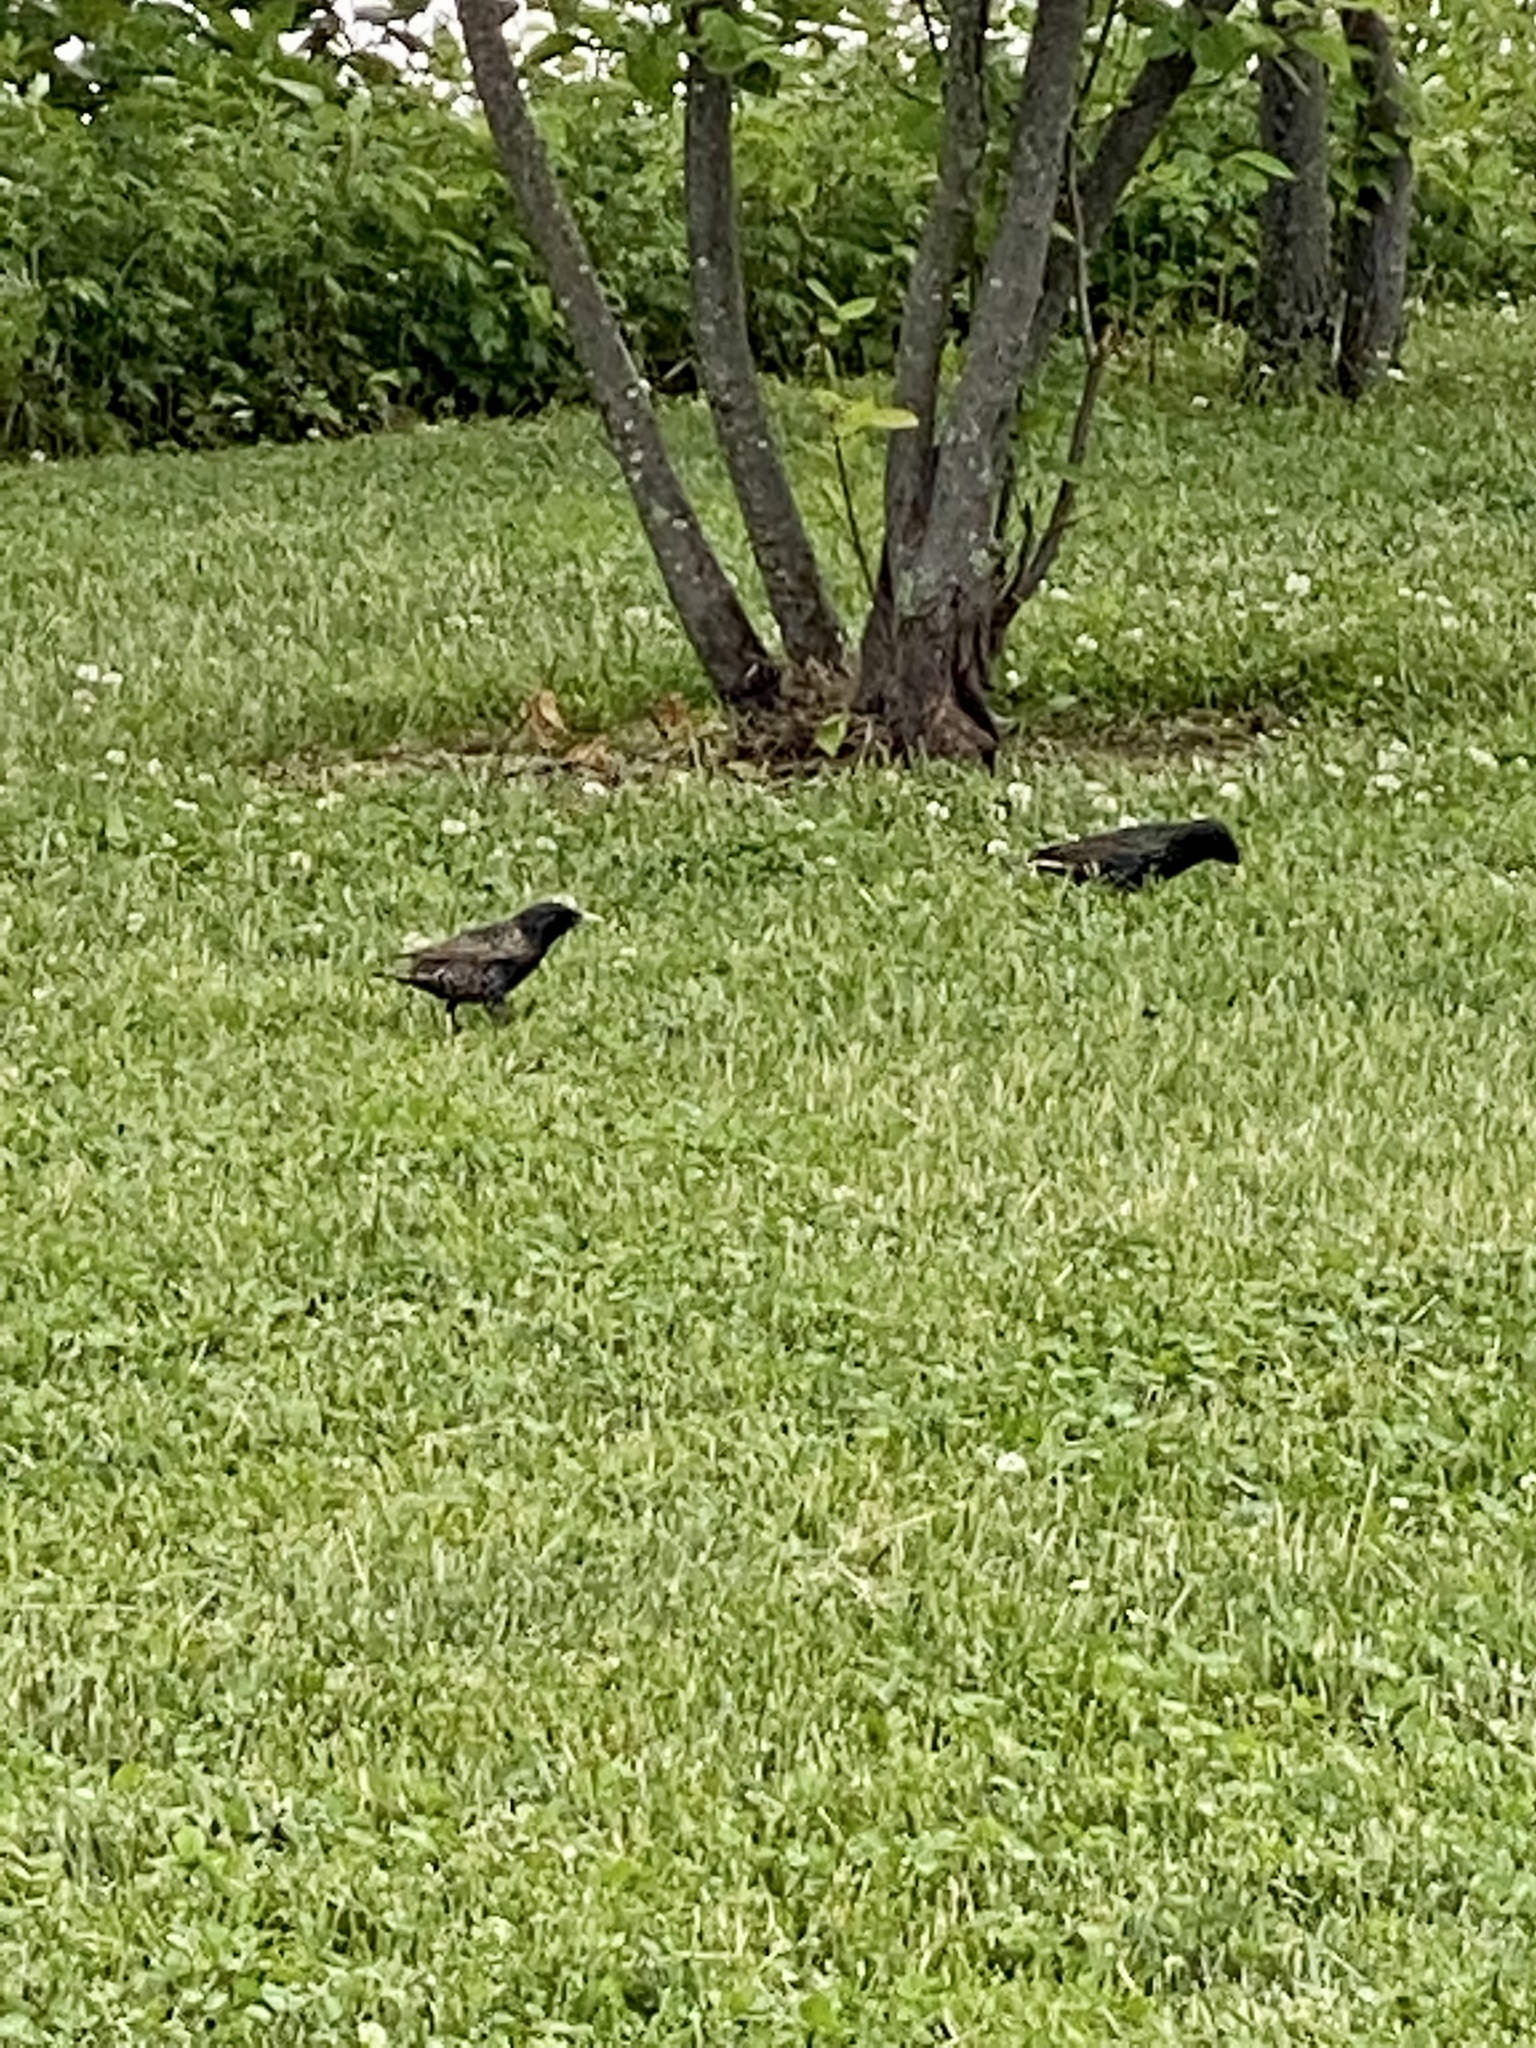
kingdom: Animalia
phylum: Chordata
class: Aves
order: Passeriformes
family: Sturnidae
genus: Sturnus
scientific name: Sturnus vulgaris
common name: Common starling
